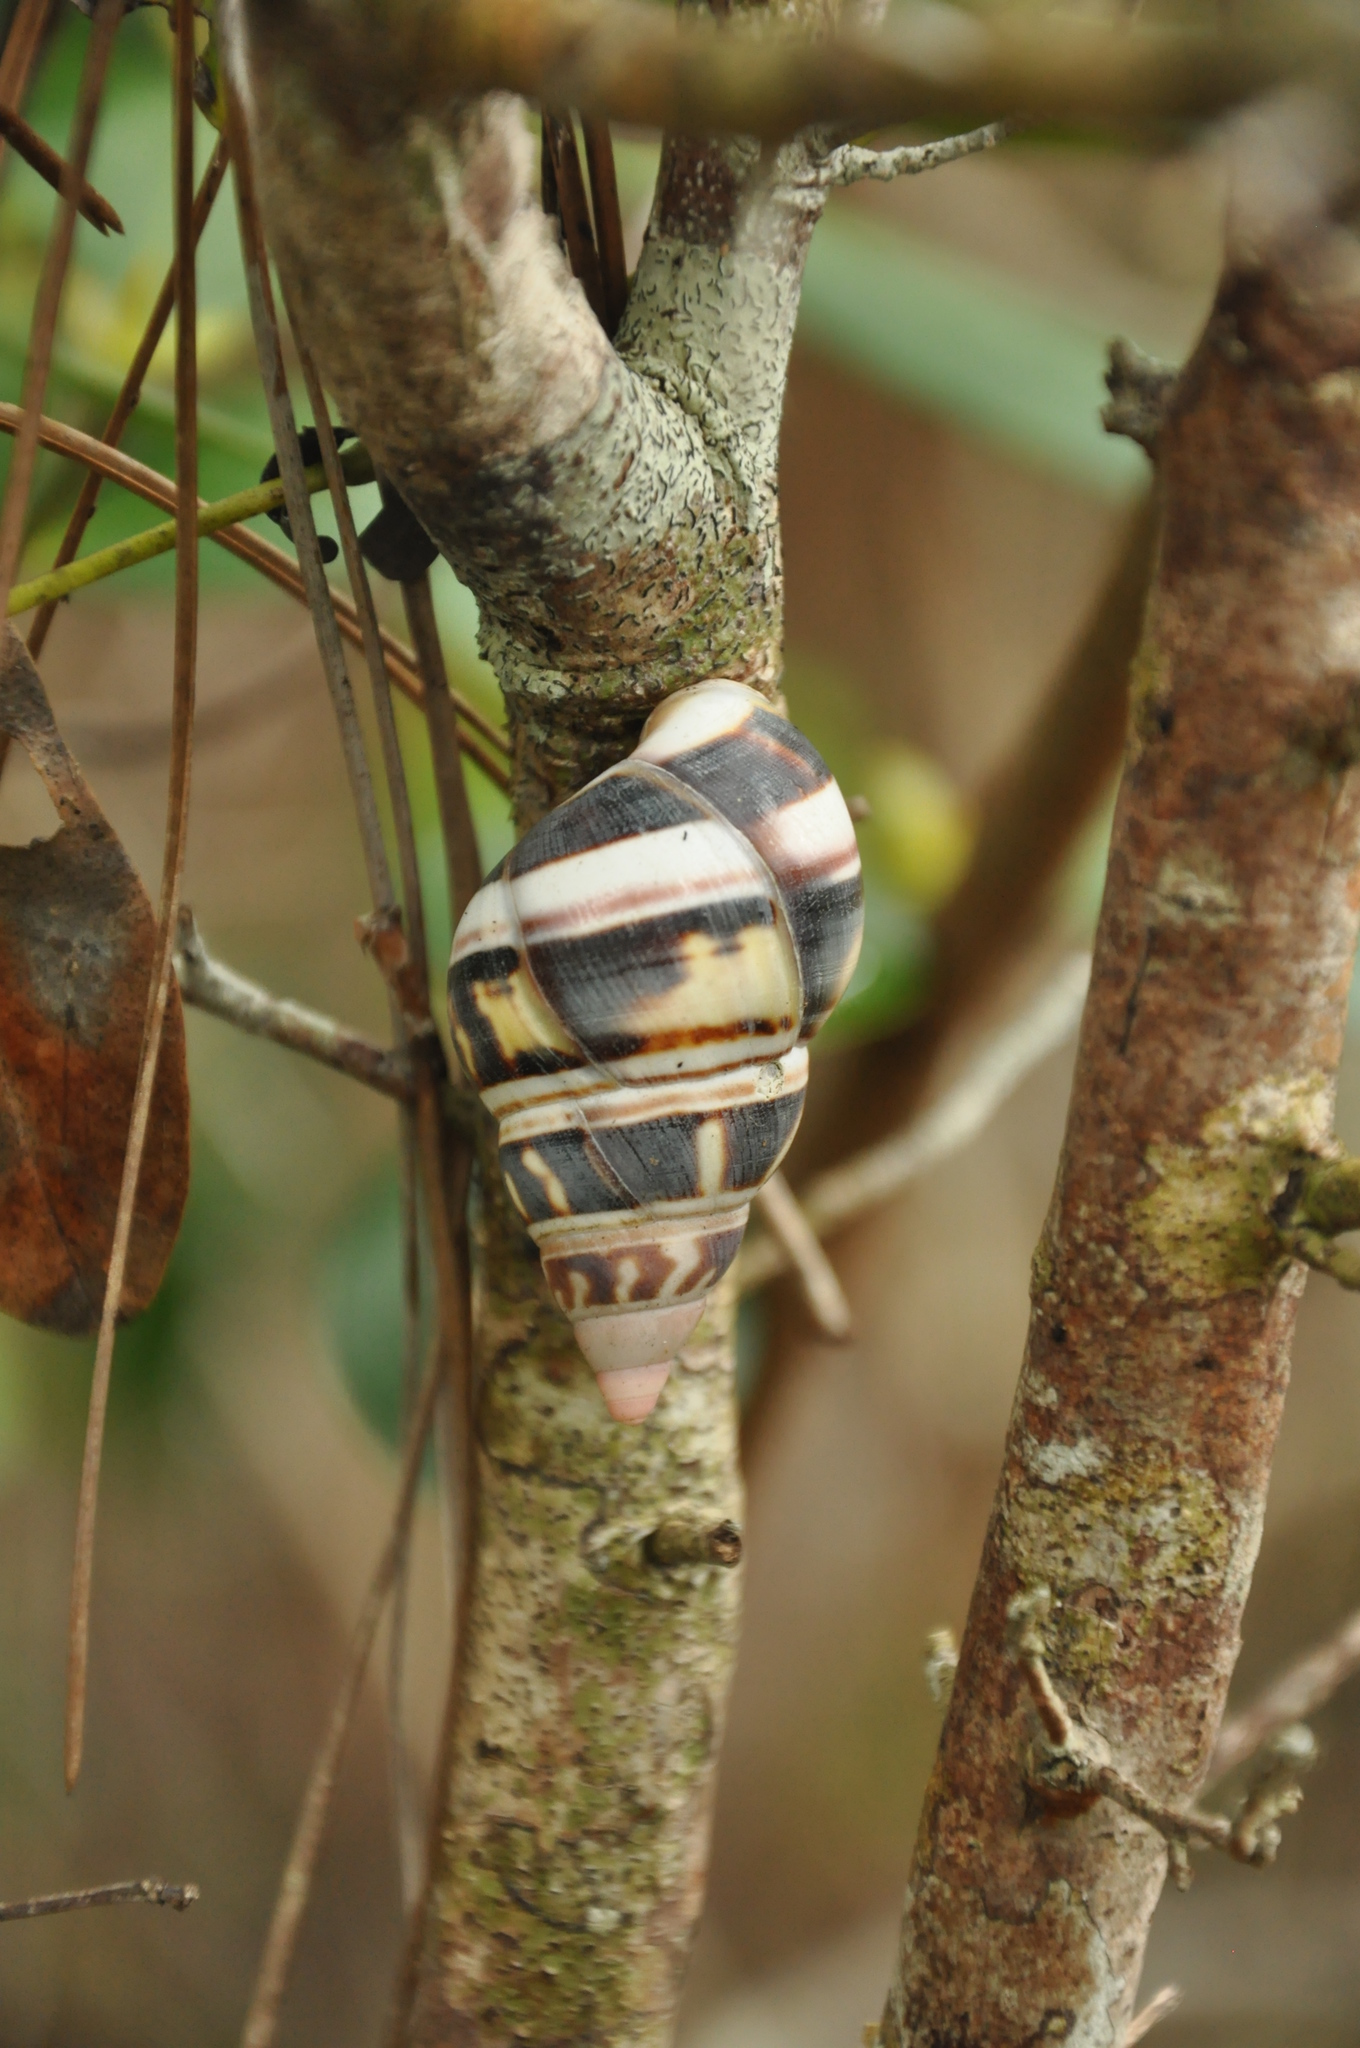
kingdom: Animalia
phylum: Mollusca
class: Gastropoda
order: Stylommatophora
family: Orthalicidae
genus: Liguus
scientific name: Liguus fasciatus
